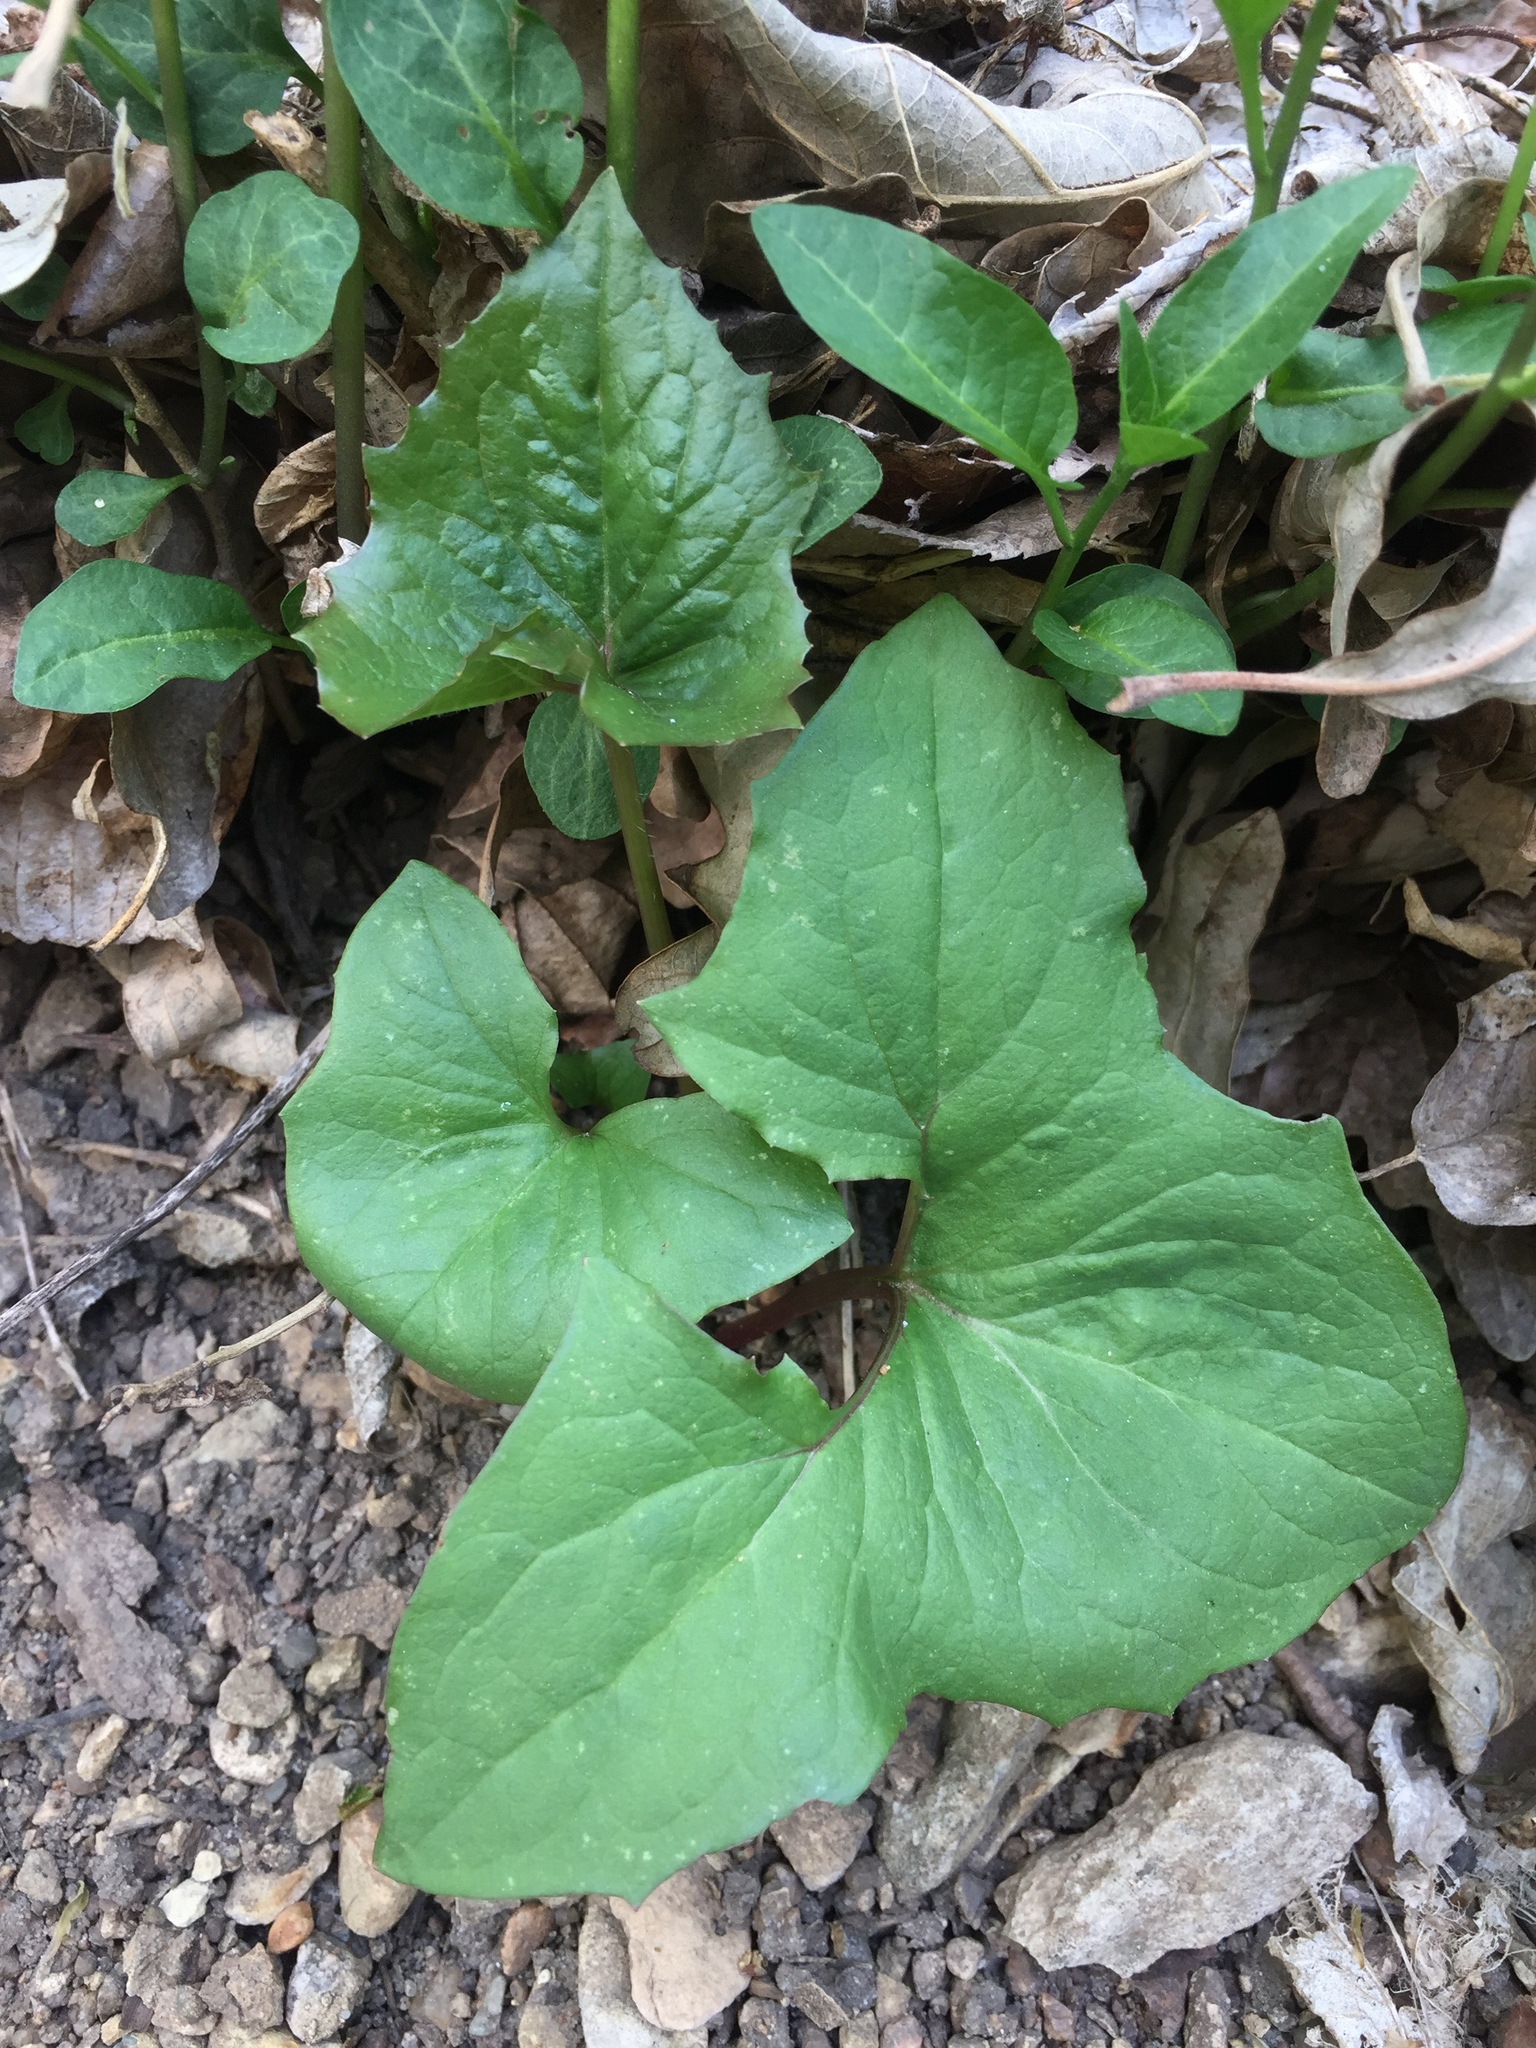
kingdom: Plantae
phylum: Tracheophyta
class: Magnoliopsida
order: Asterales
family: Asteraceae
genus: Nabalus
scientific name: Nabalus albus
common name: White rattlesnakeroot
